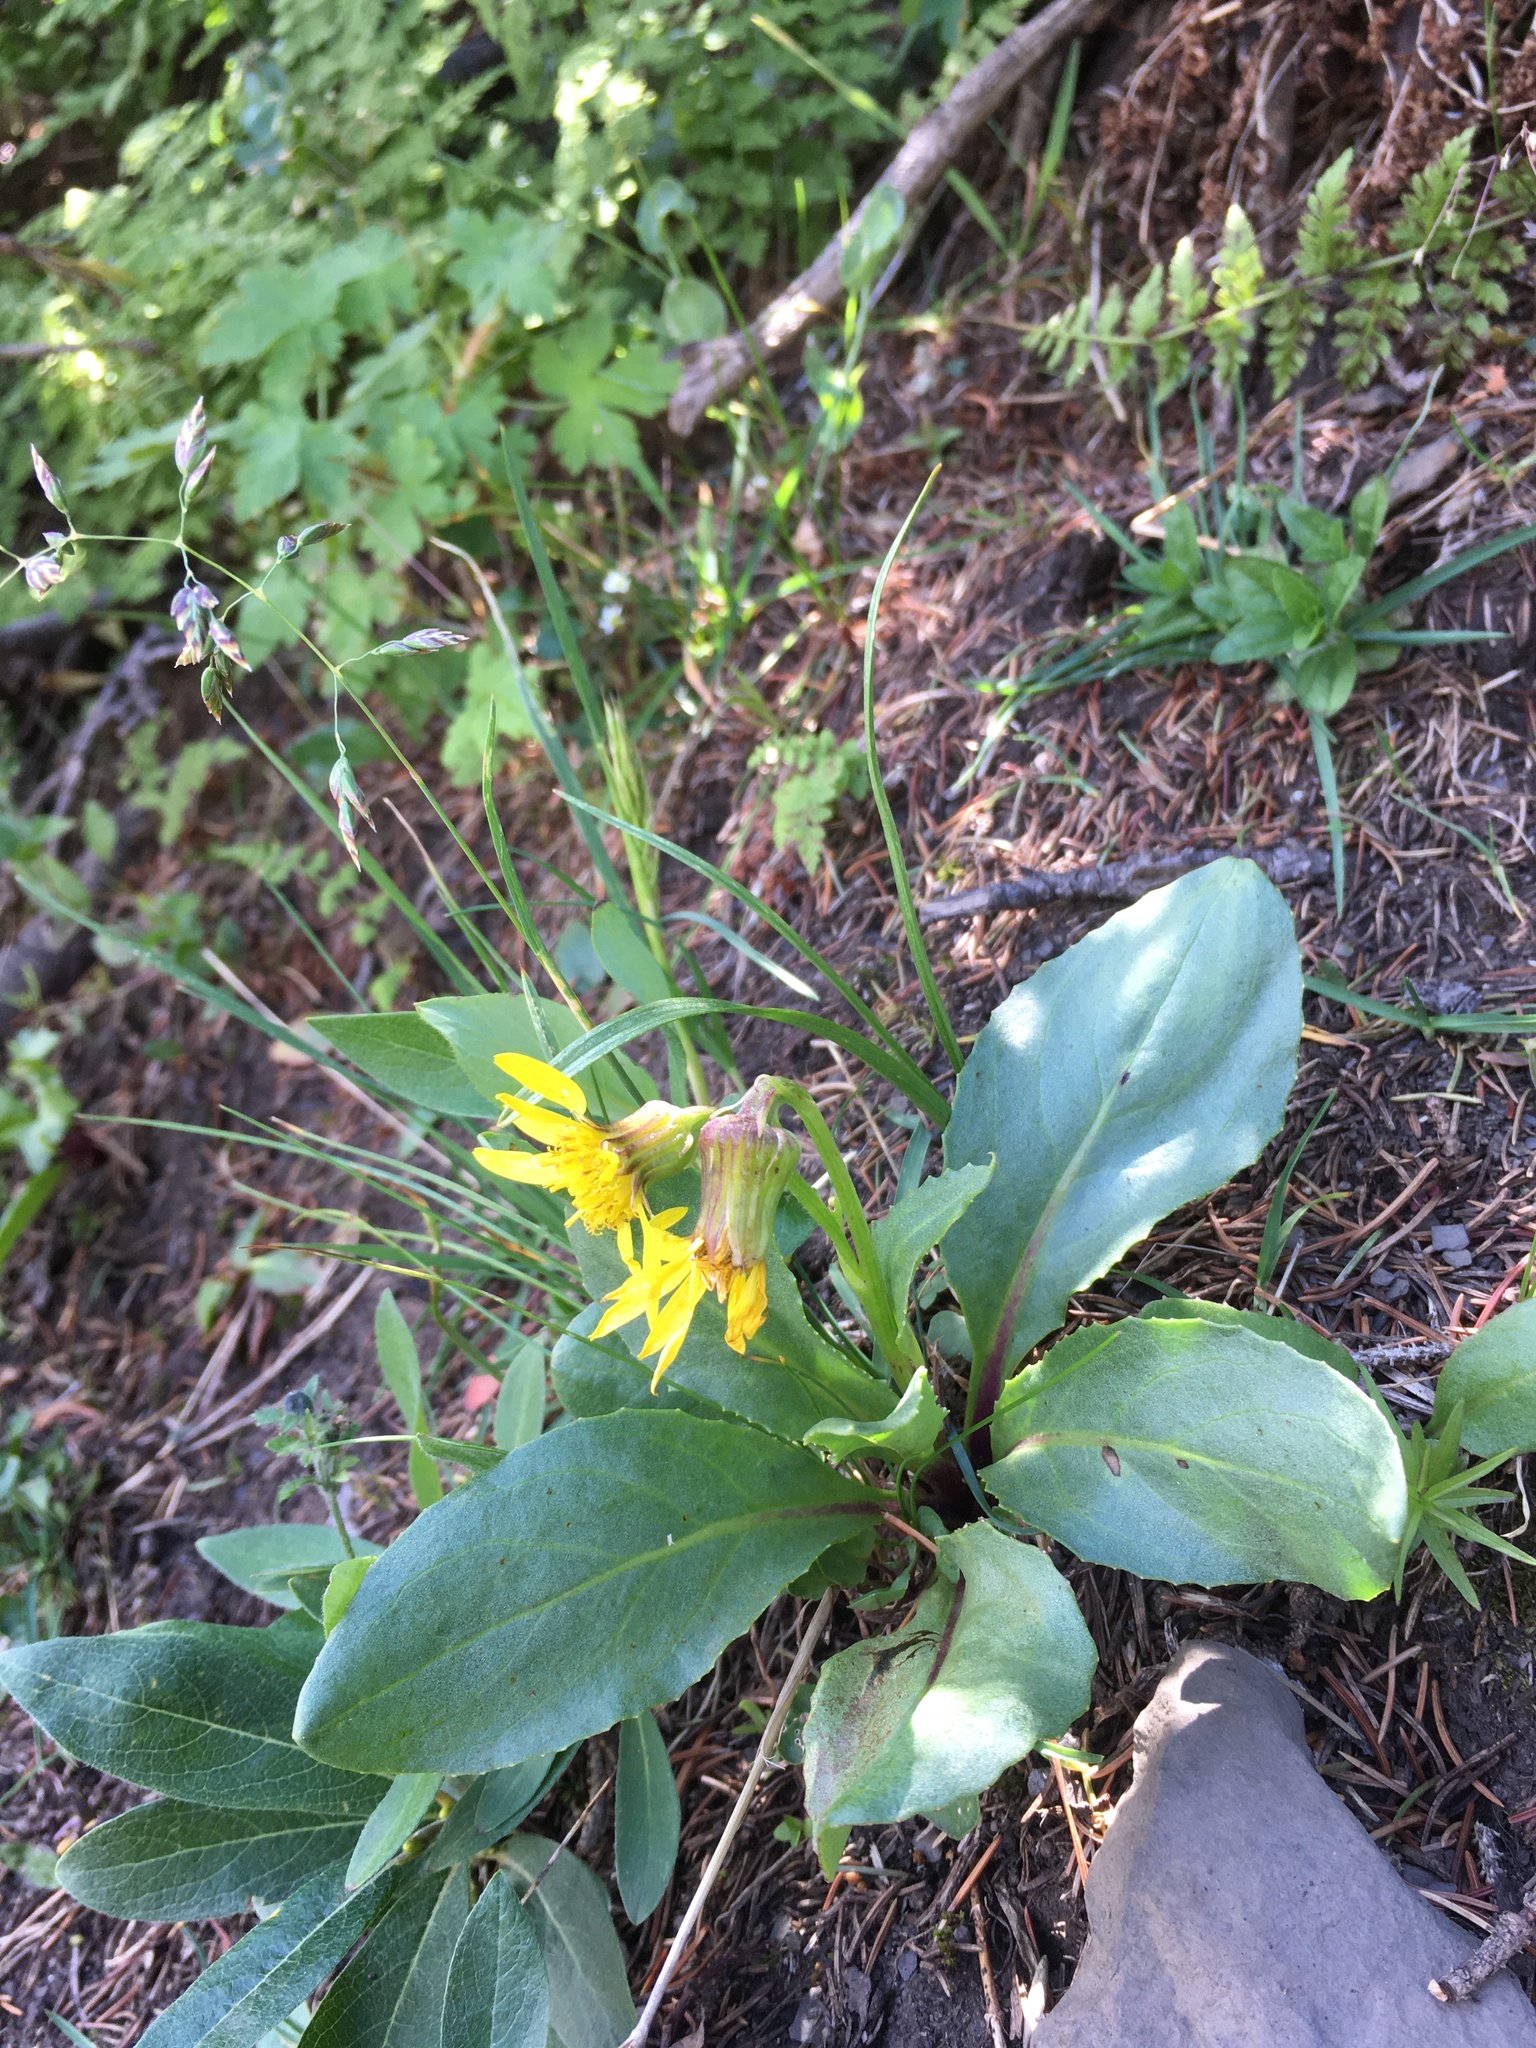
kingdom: Plantae
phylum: Tracheophyta
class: Magnoliopsida
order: Asterales
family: Asteraceae
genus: Senecio
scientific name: Senecio amplectens
